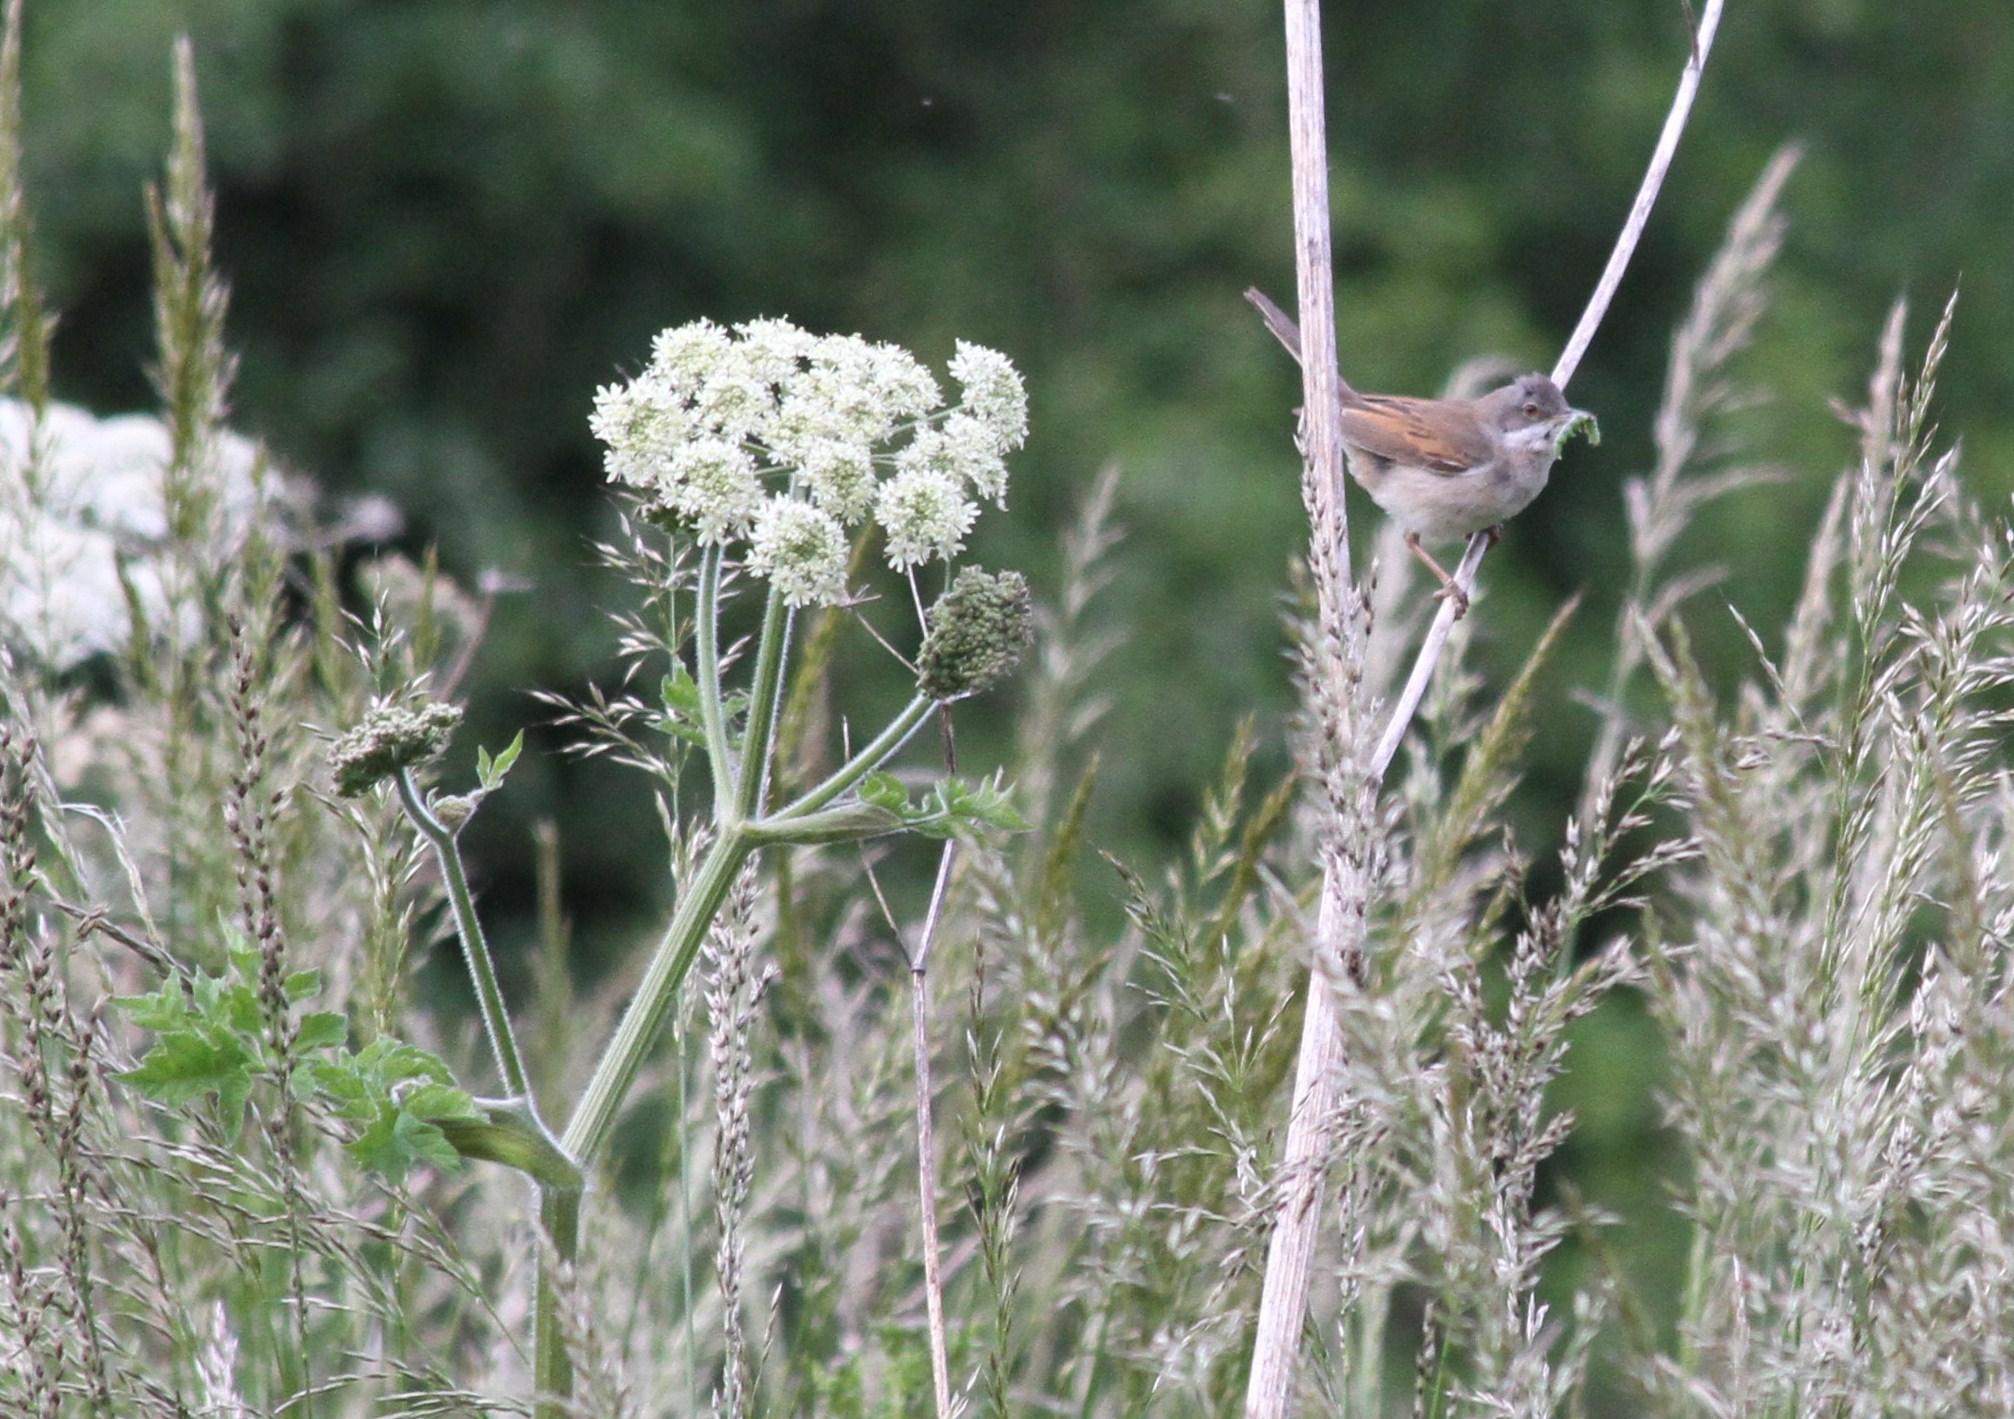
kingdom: Animalia
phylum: Chordata
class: Aves
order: Passeriformes
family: Sylviidae
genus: Sylvia
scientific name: Sylvia communis
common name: Common whitethroat
